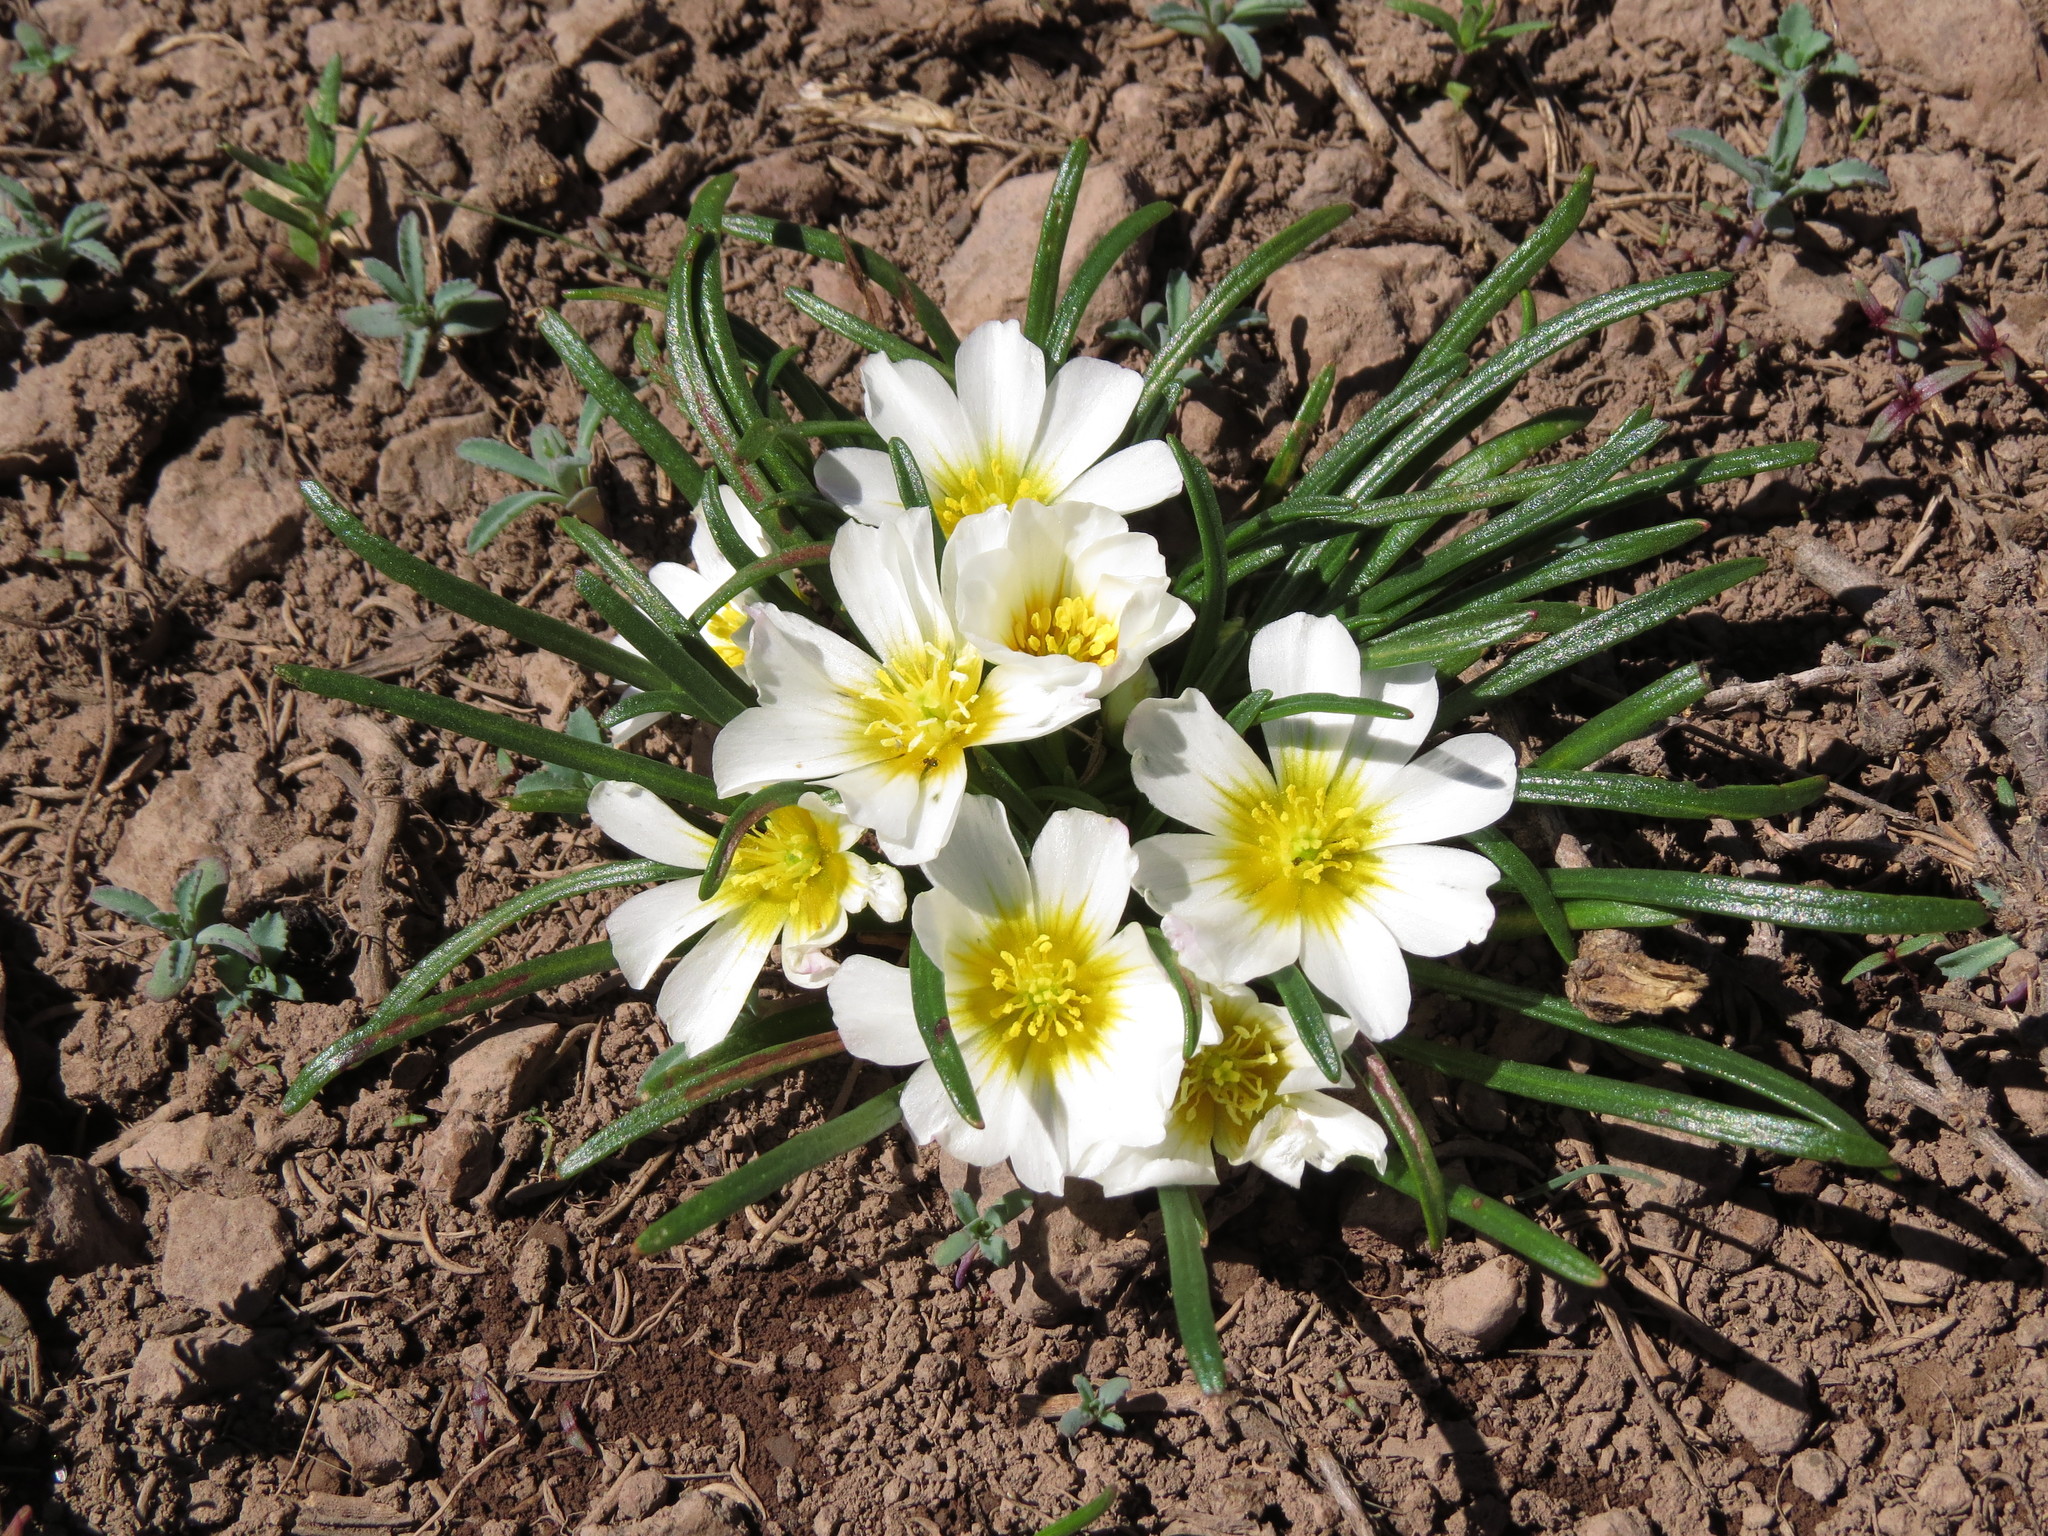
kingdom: Plantae
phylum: Tracheophyta
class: Magnoliopsida
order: Caryophyllales
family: Montiaceae
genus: Calandrinia
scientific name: Calandrinia affinis
